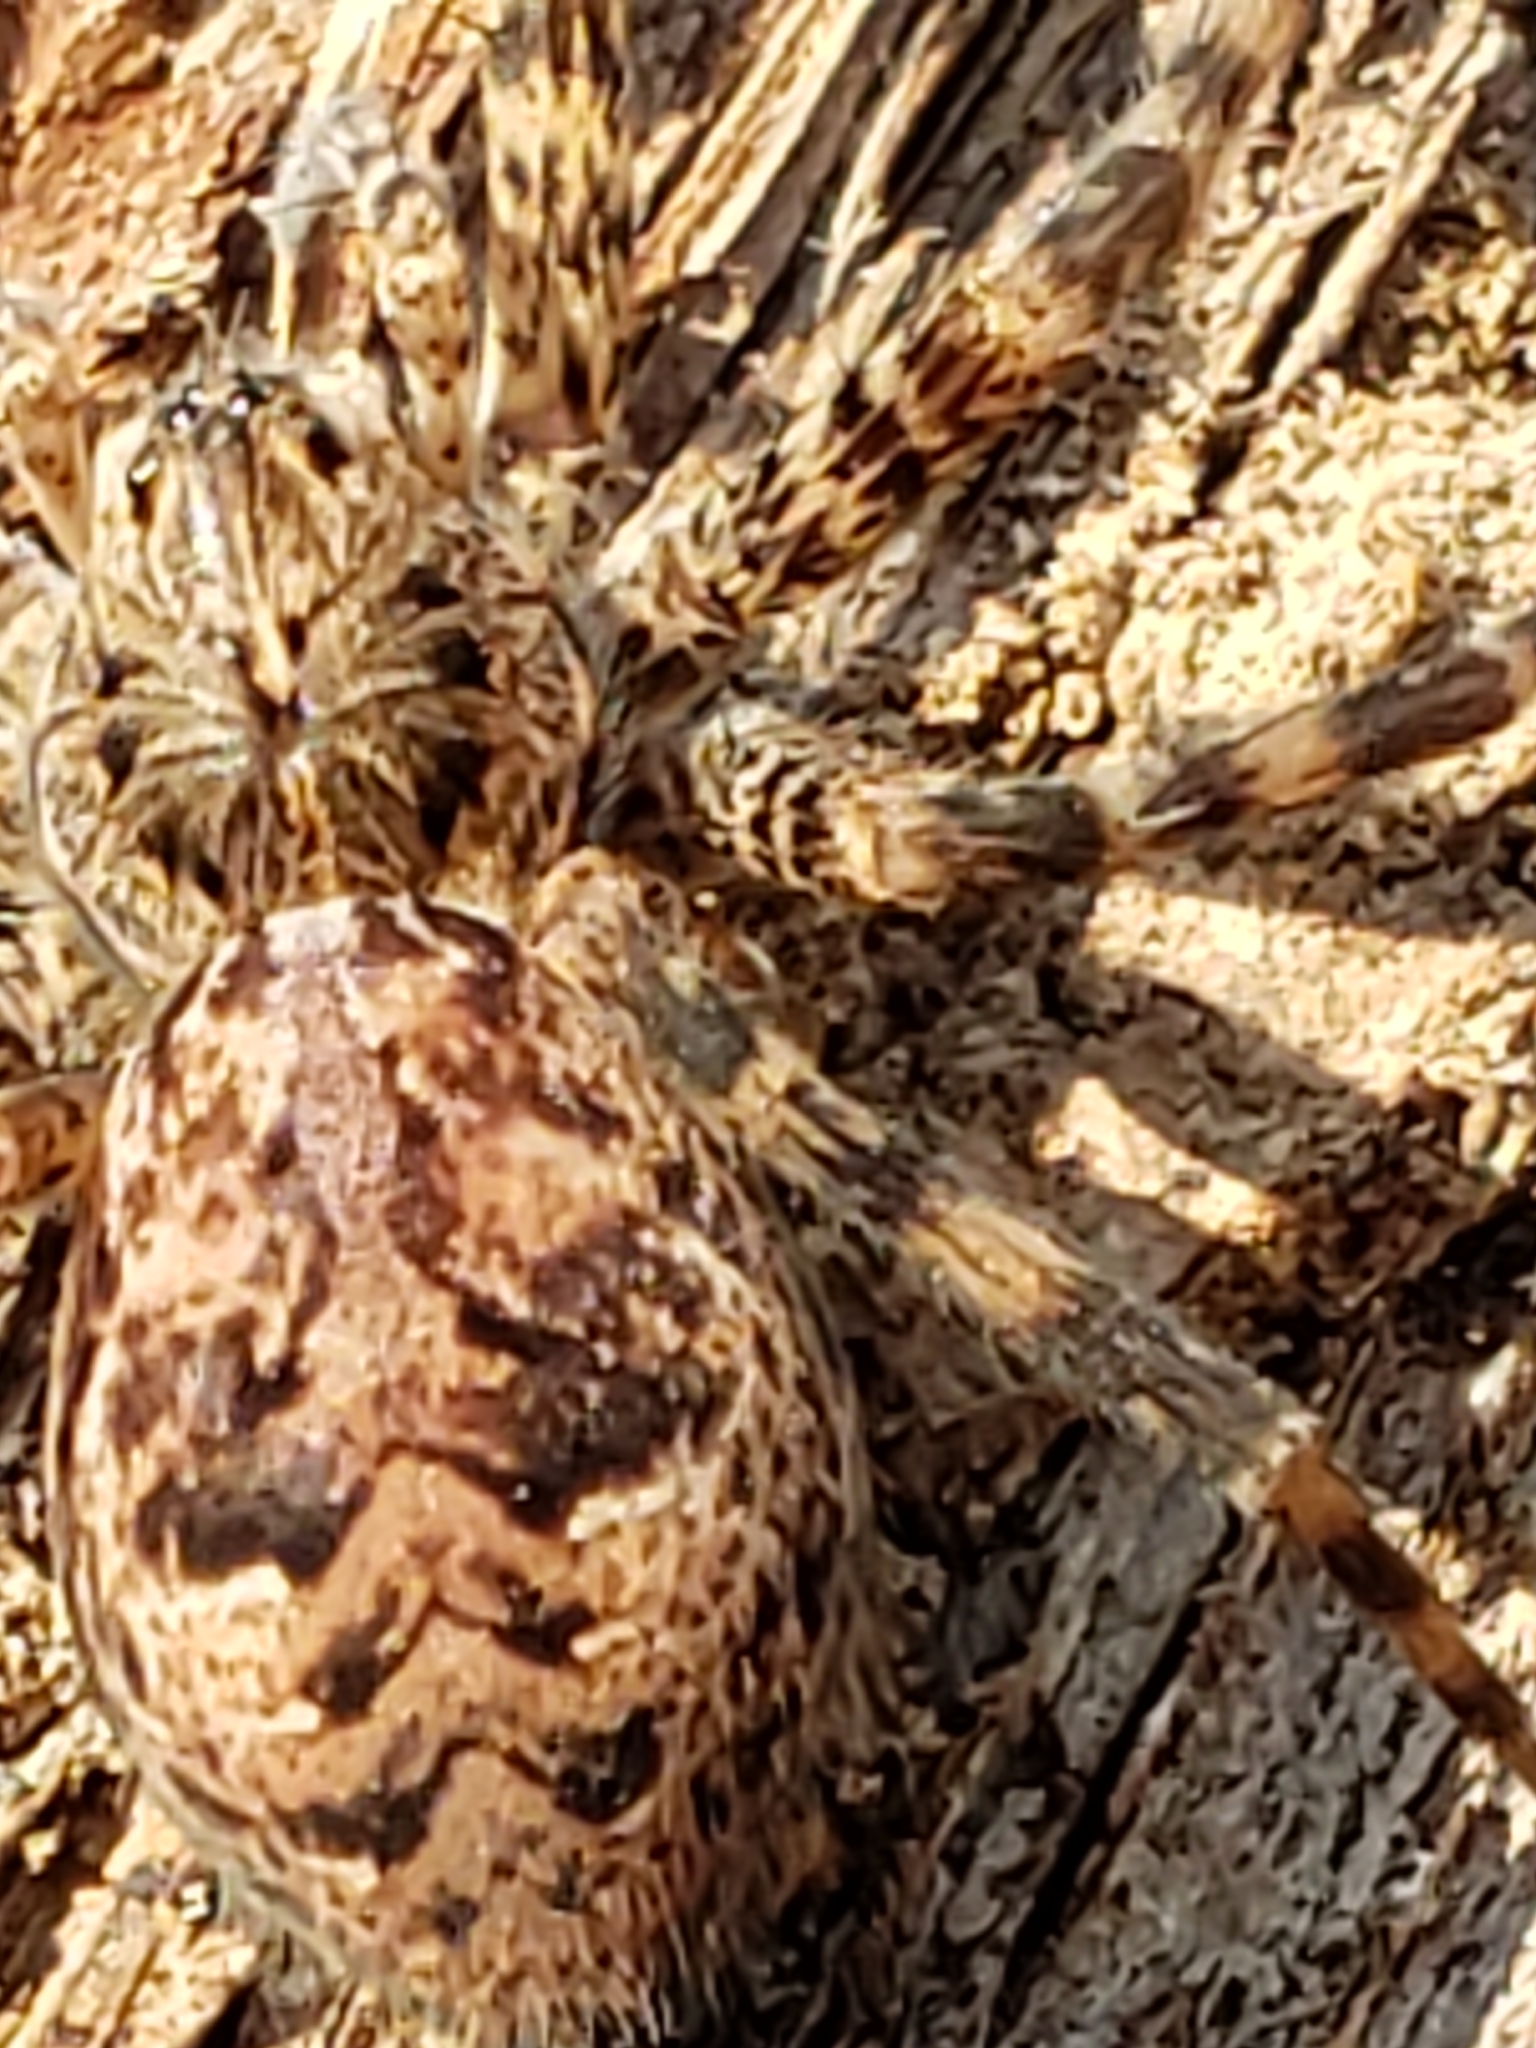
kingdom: Animalia
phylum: Arthropoda
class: Arachnida
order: Araneae
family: Pisauridae
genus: Dolomedes
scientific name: Dolomedes tenebrosus
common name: Dark fishing spider
